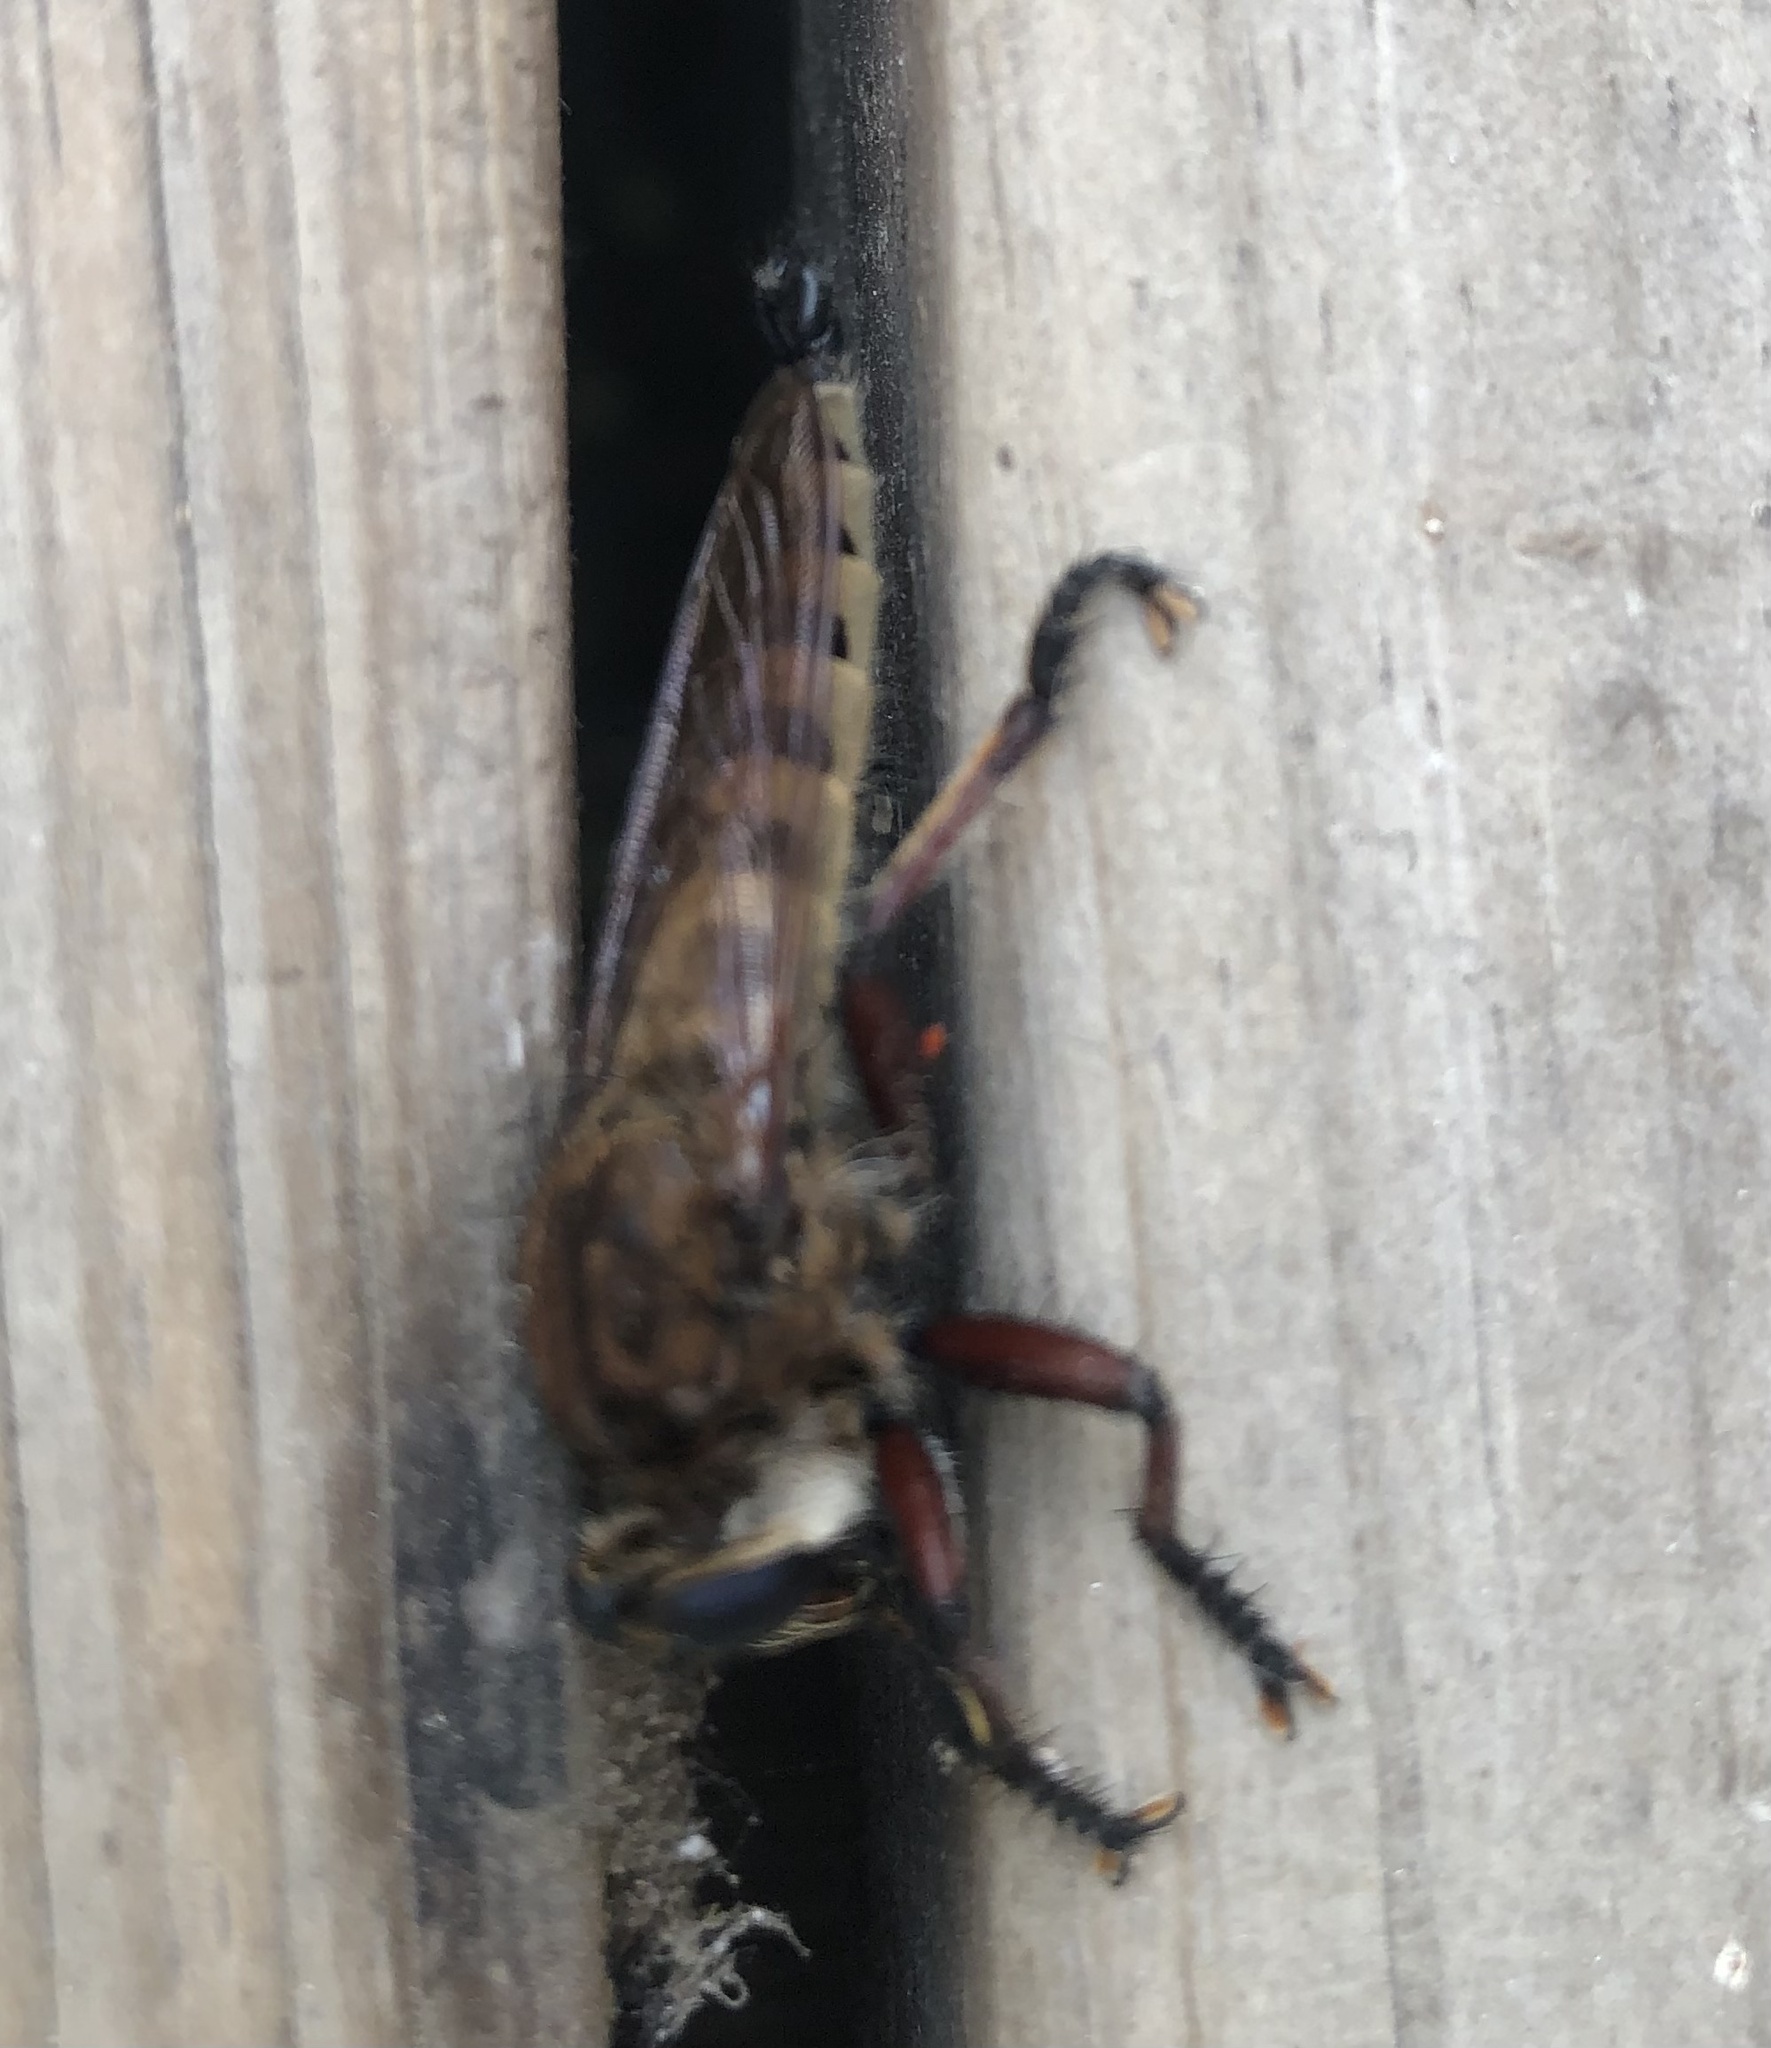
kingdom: Animalia
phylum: Arthropoda
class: Insecta
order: Diptera
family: Asilidae
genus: Promachus
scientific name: Promachus hinei
